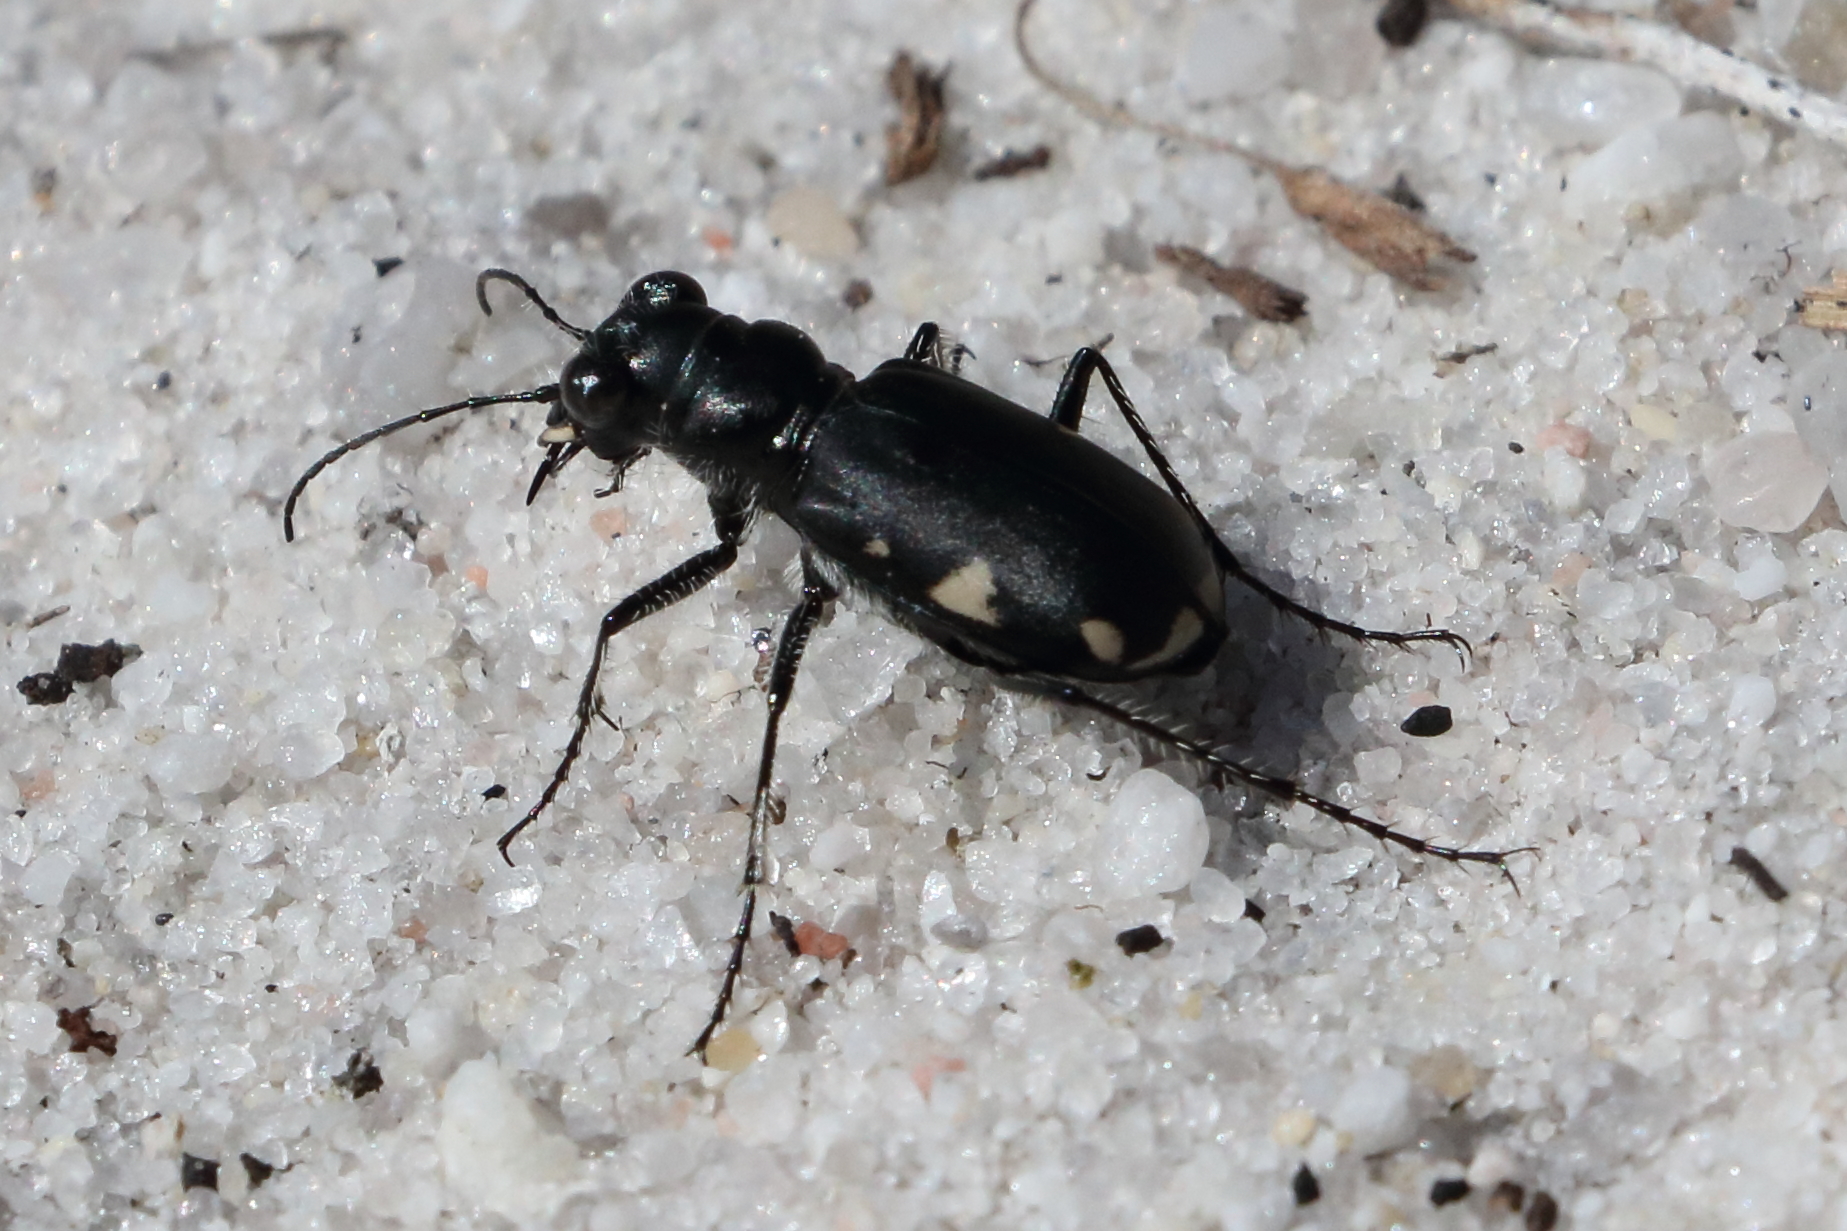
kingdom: Animalia
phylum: Arthropoda
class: Insecta
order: Coleoptera
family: Carabidae
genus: Cicindela
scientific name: Cicindela scutellaris
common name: Festive tiger beetle
